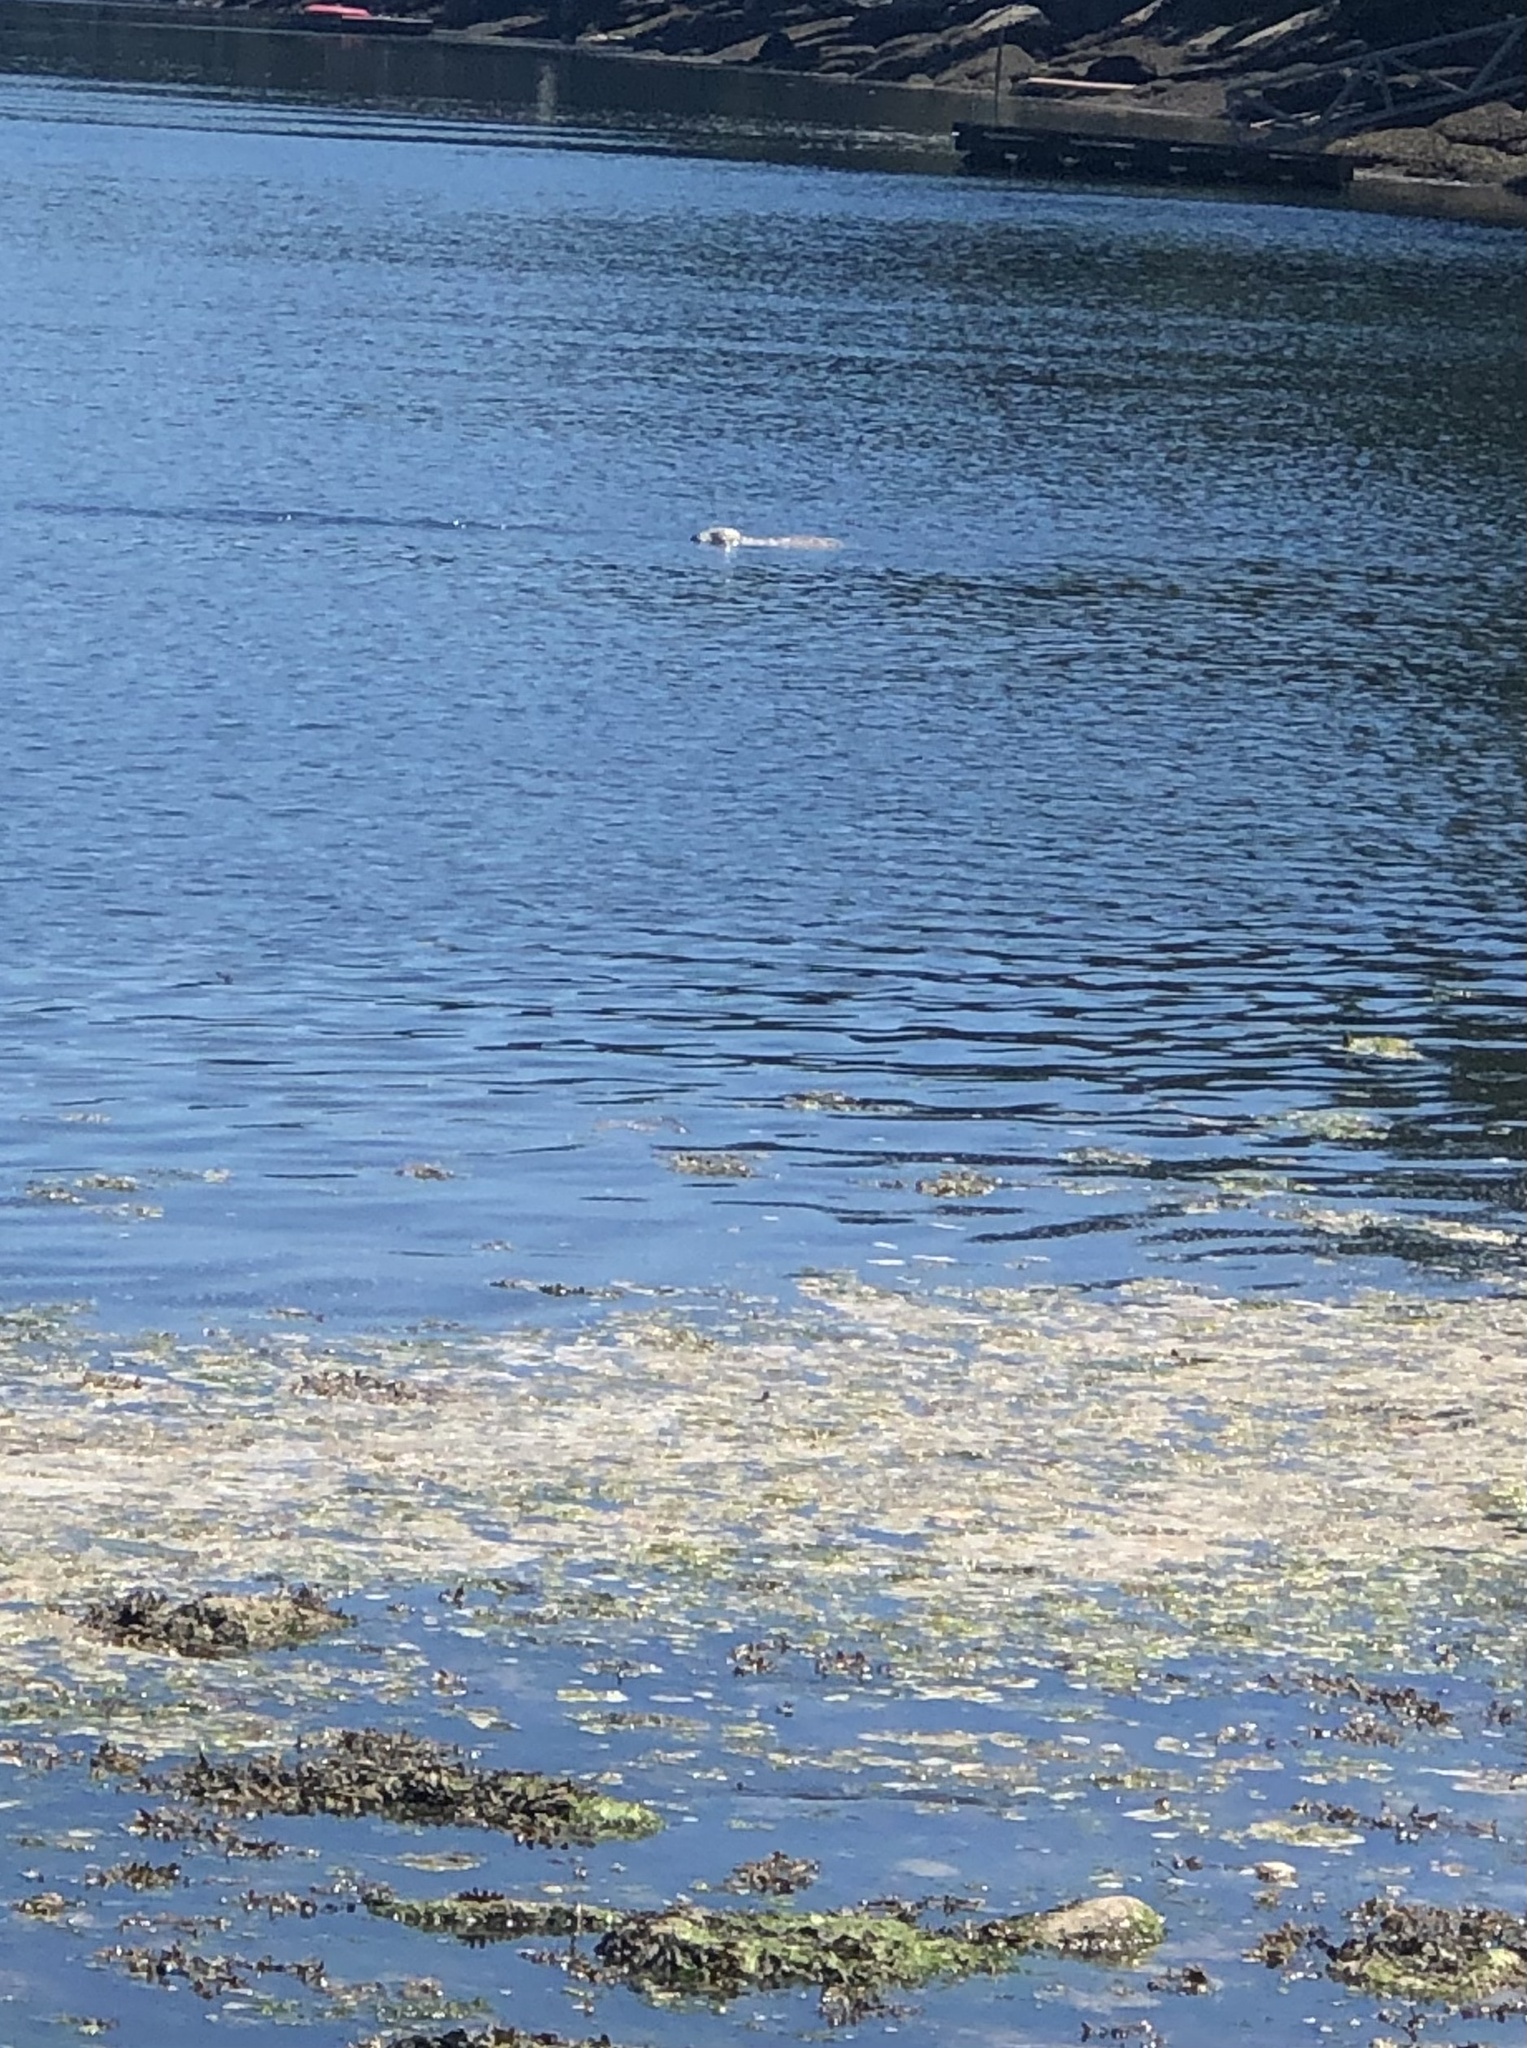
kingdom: Animalia
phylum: Chordata
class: Mammalia
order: Carnivora
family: Phocidae
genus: Phoca
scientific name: Phoca vitulina
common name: Harbor seal
